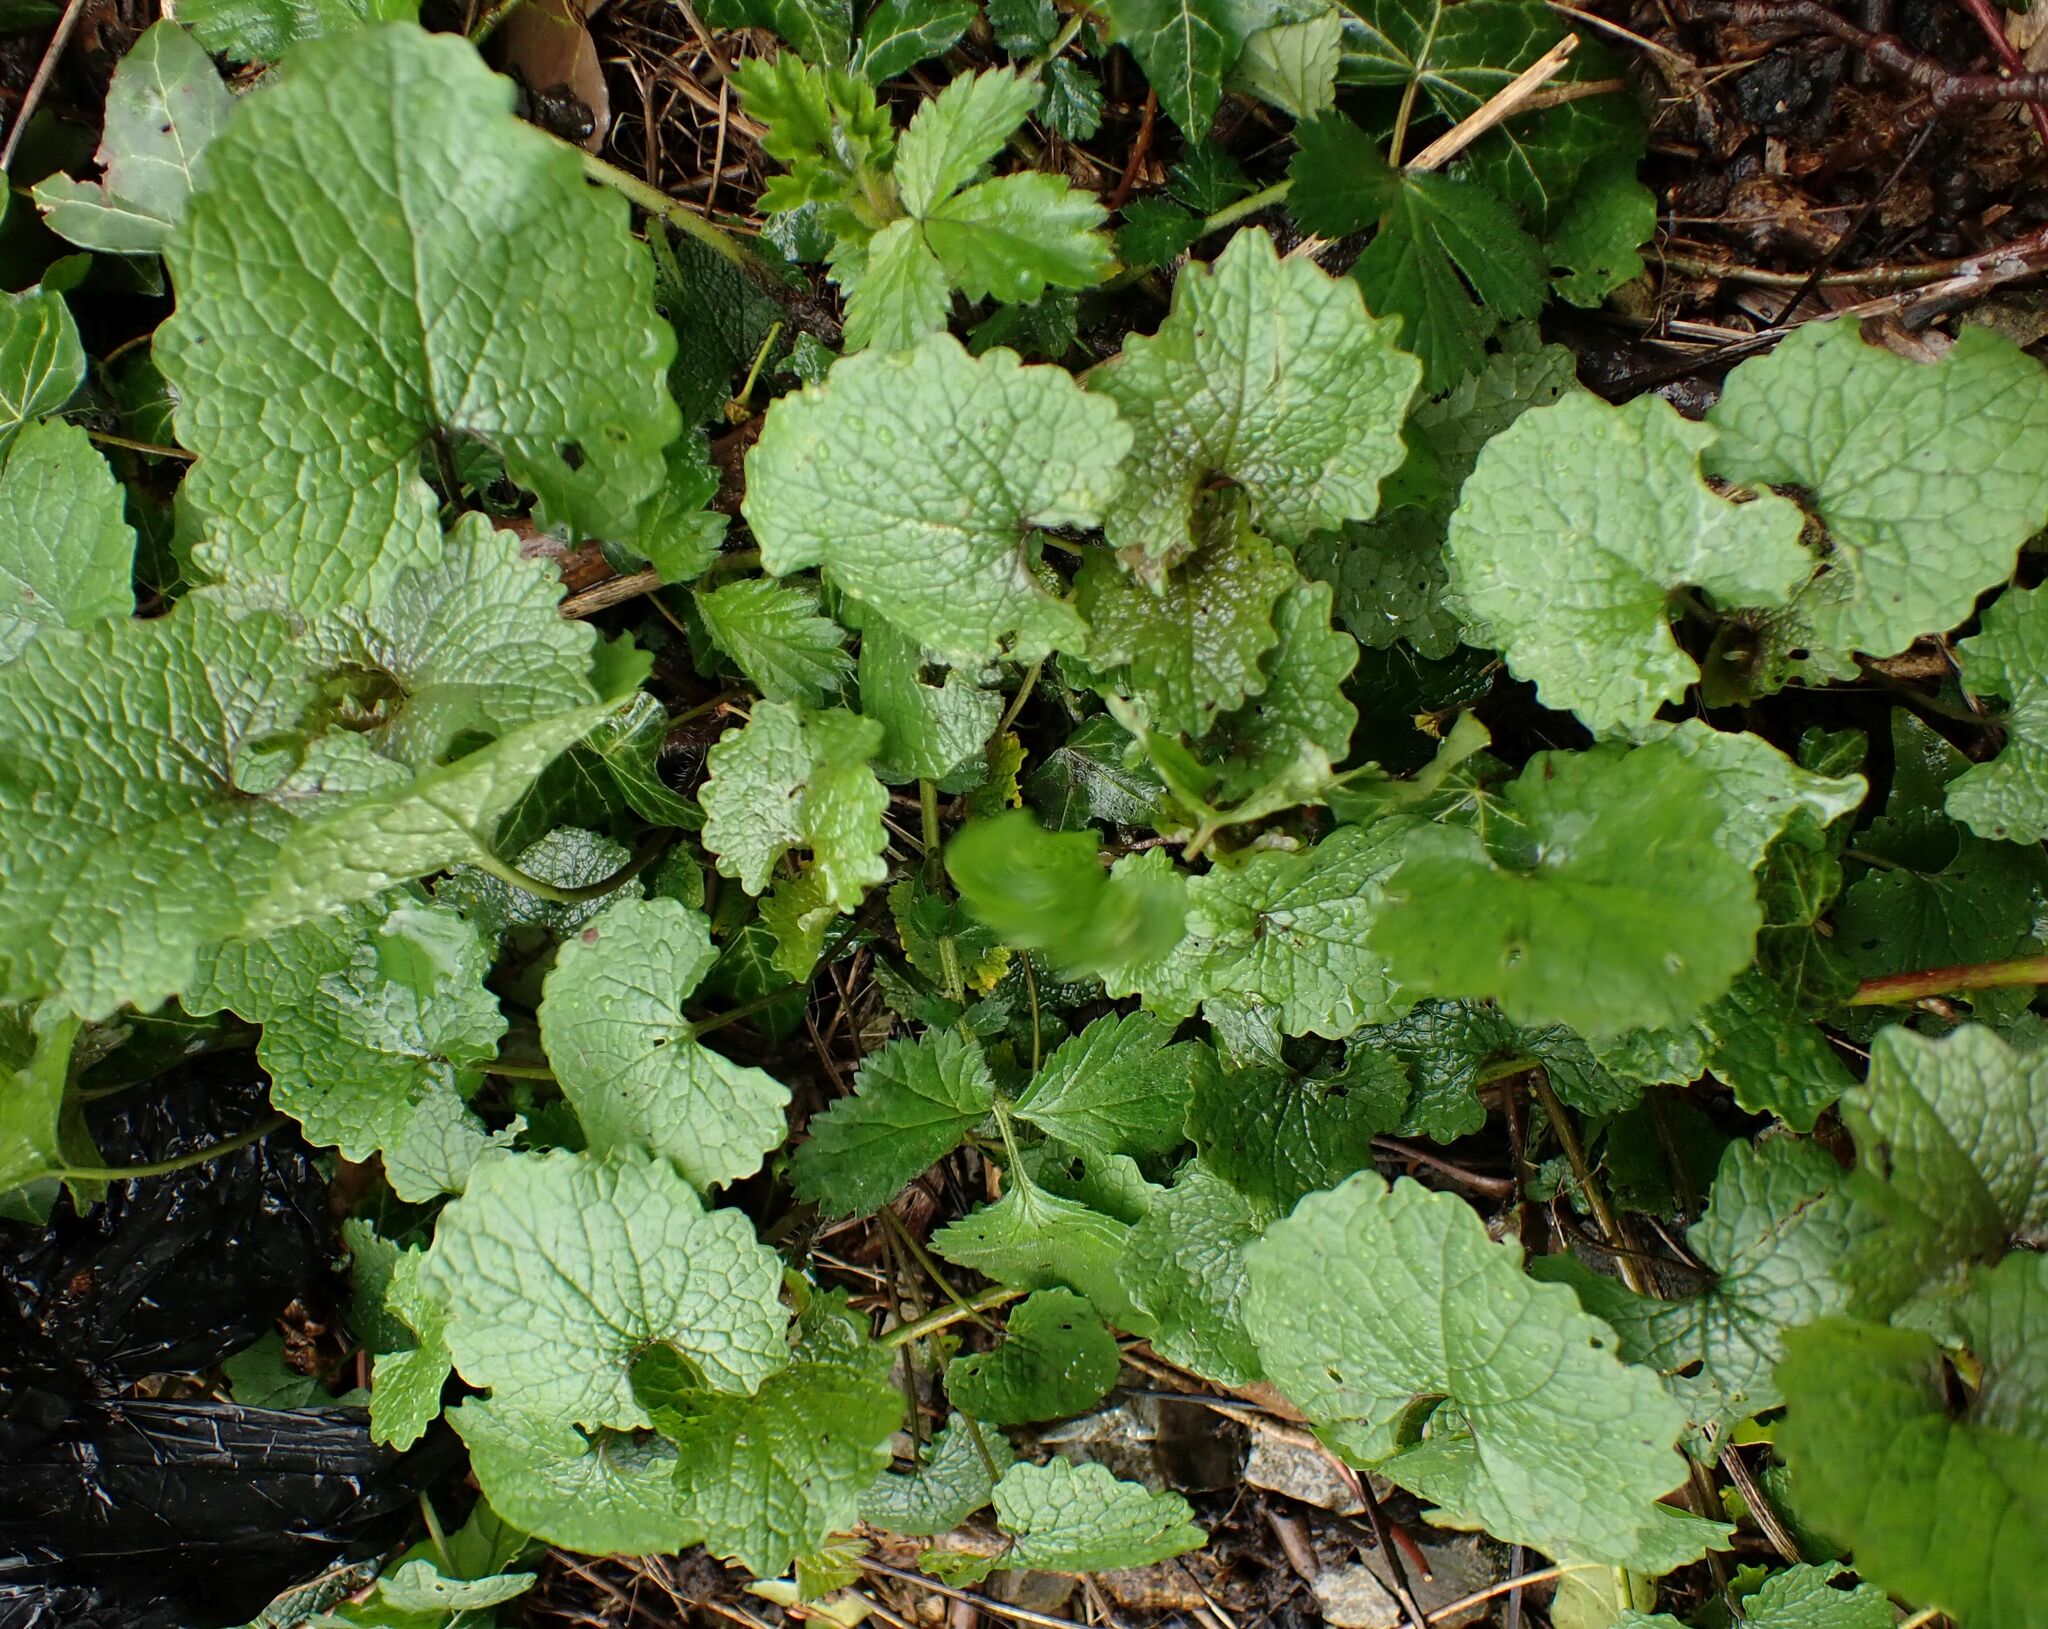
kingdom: Plantae
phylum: Tracheophyta
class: Magnoliopsida
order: Brassicales
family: Brassicaceae
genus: Alliaria
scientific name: Alliaria petiolata
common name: Garlic mustard
